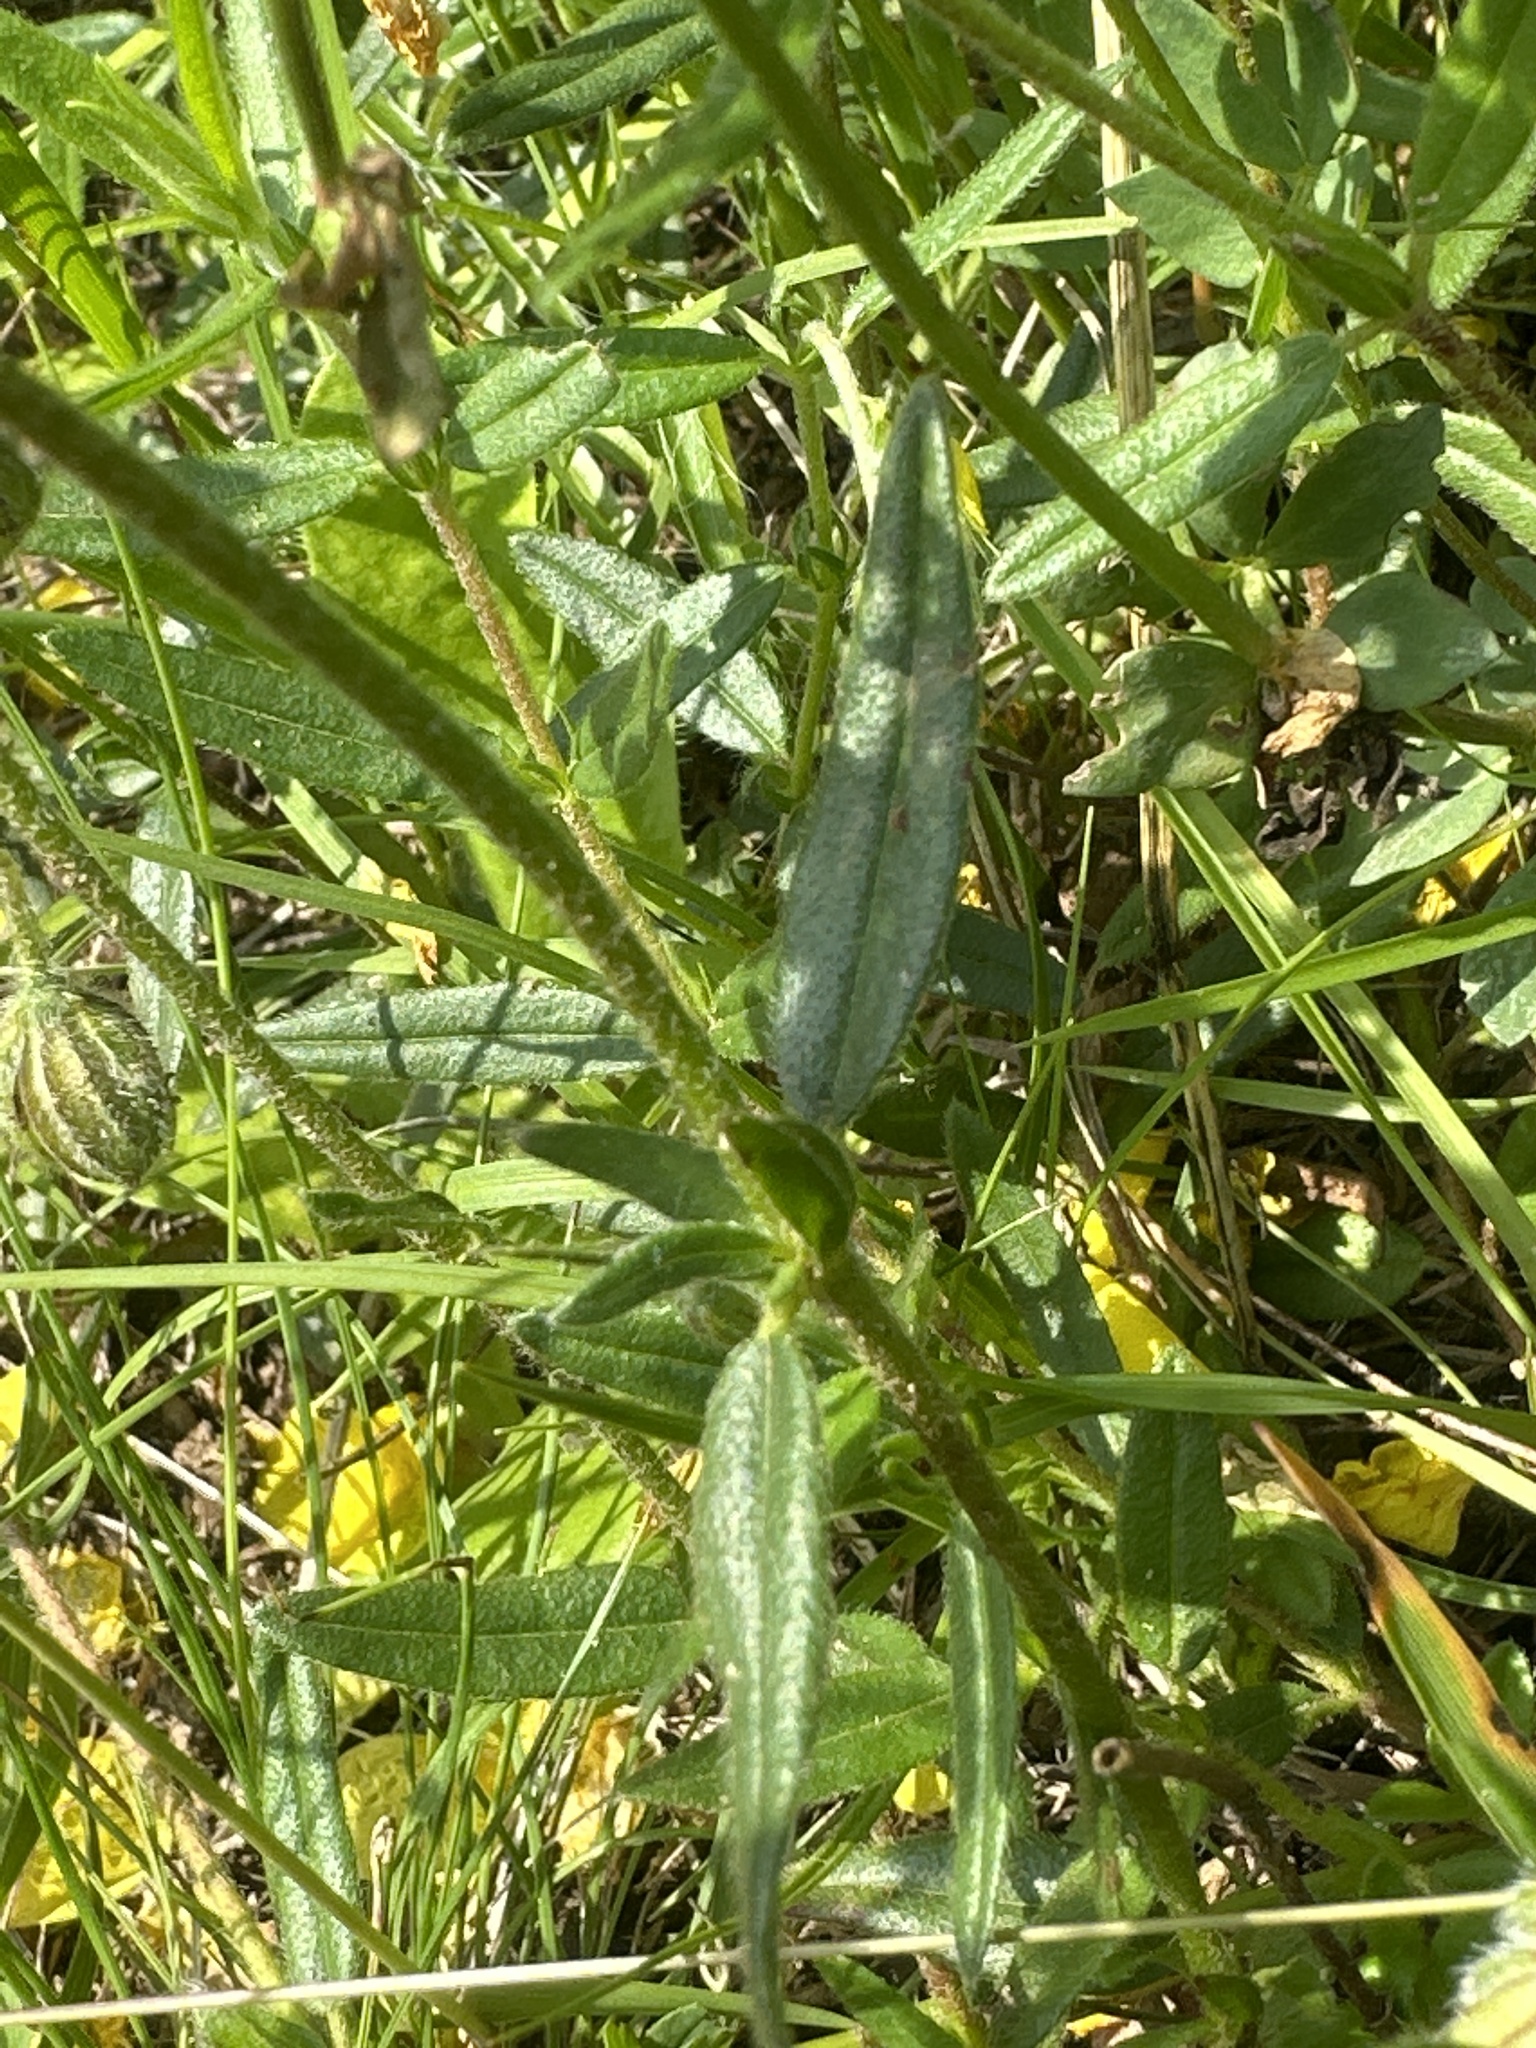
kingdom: Plantae
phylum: Tracheophyta
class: Magnoliopsida
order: Malvales
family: Cistaceae
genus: Helianthemum
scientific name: Helianthemum nummularium
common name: Common rock-rose
